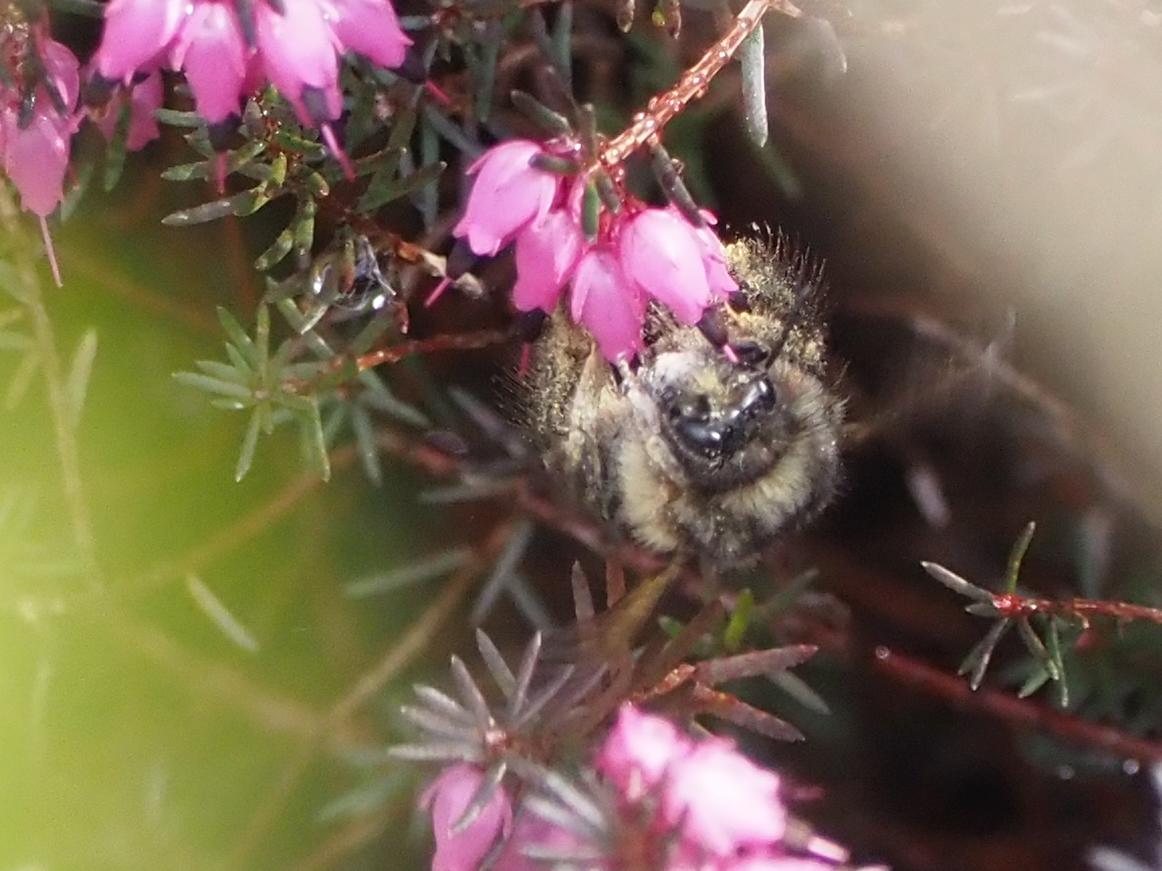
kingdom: Animalia
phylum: Arthropoda
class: Insecta
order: Hymenoptera
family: Apidae
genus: Bombus
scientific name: Bombus melanopygus
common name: Black tail bumble bee
